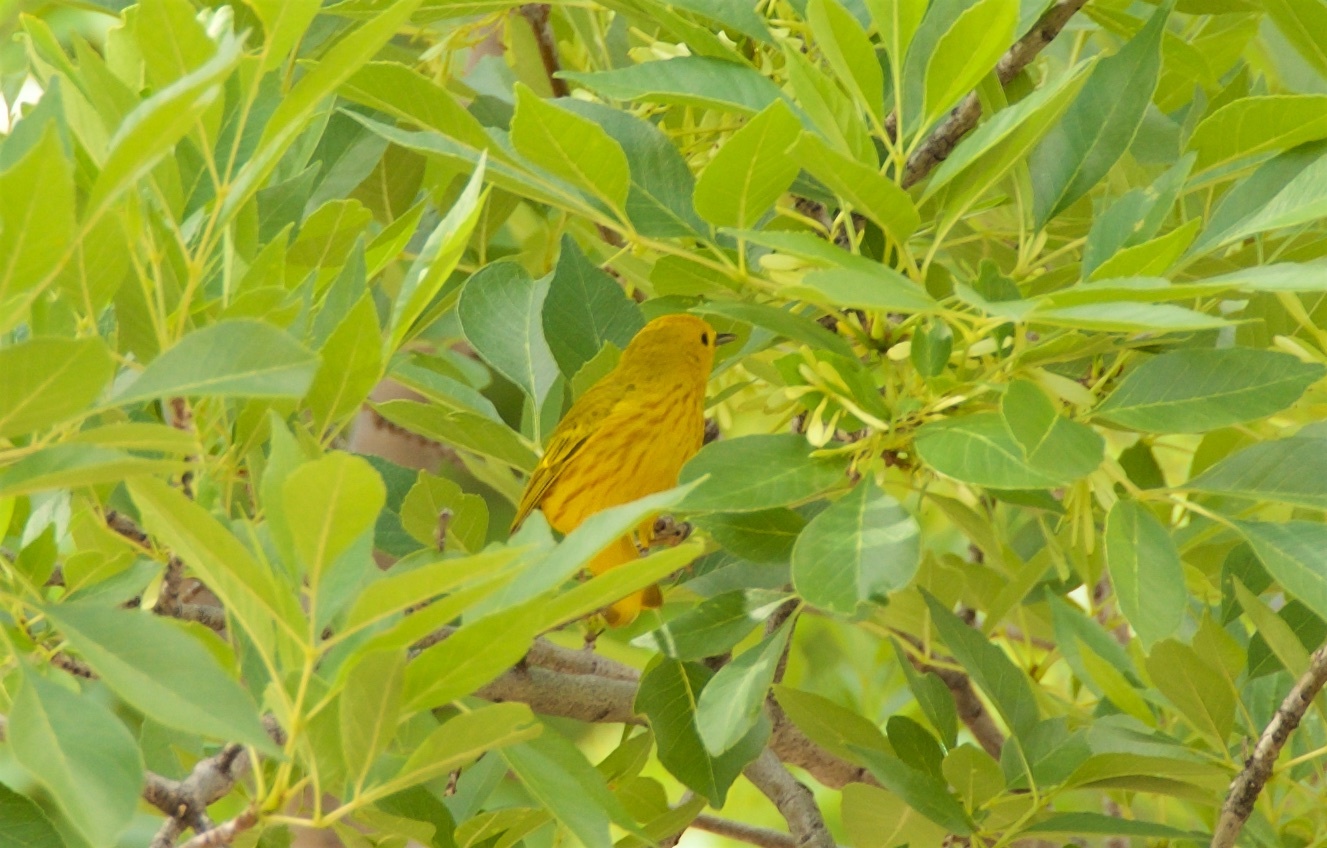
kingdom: Animalia
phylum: Chordata
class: Aves
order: Passeriformes
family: Parulidae
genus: Setophaga
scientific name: Setophaga petechia
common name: Yellow warbler
